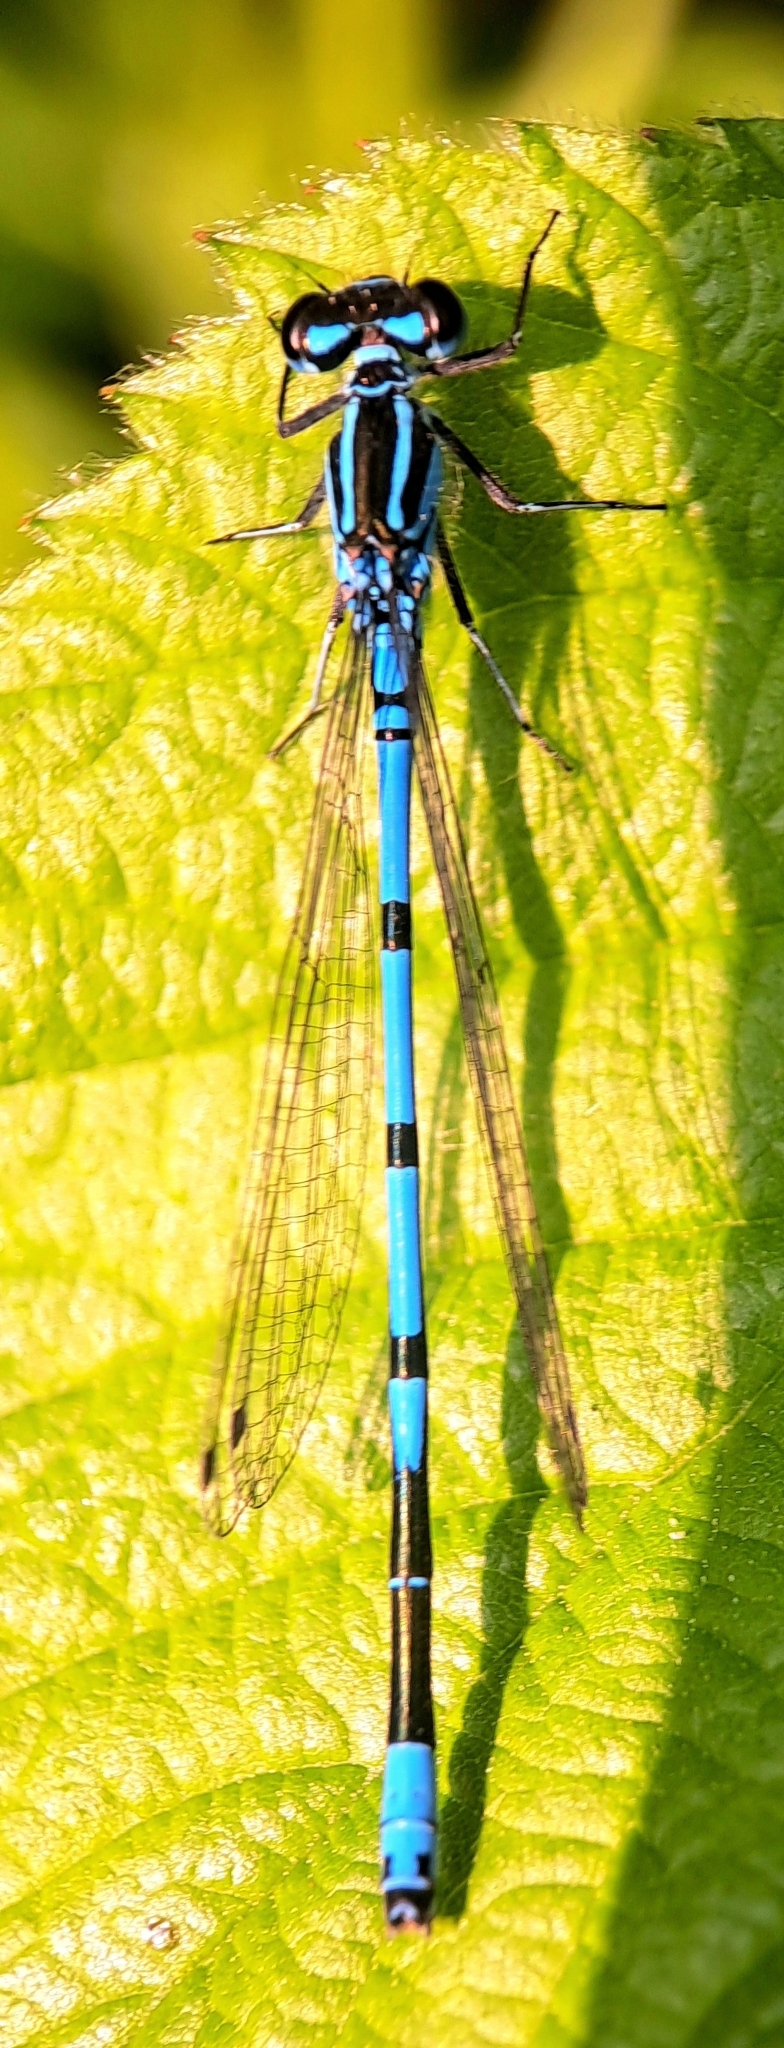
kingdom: Animalia
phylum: Arthropoda
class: Insecta
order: Odonata
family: Coenagrionidae
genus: Coenagrion
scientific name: Coenagrion puella
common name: Azure damselfly
